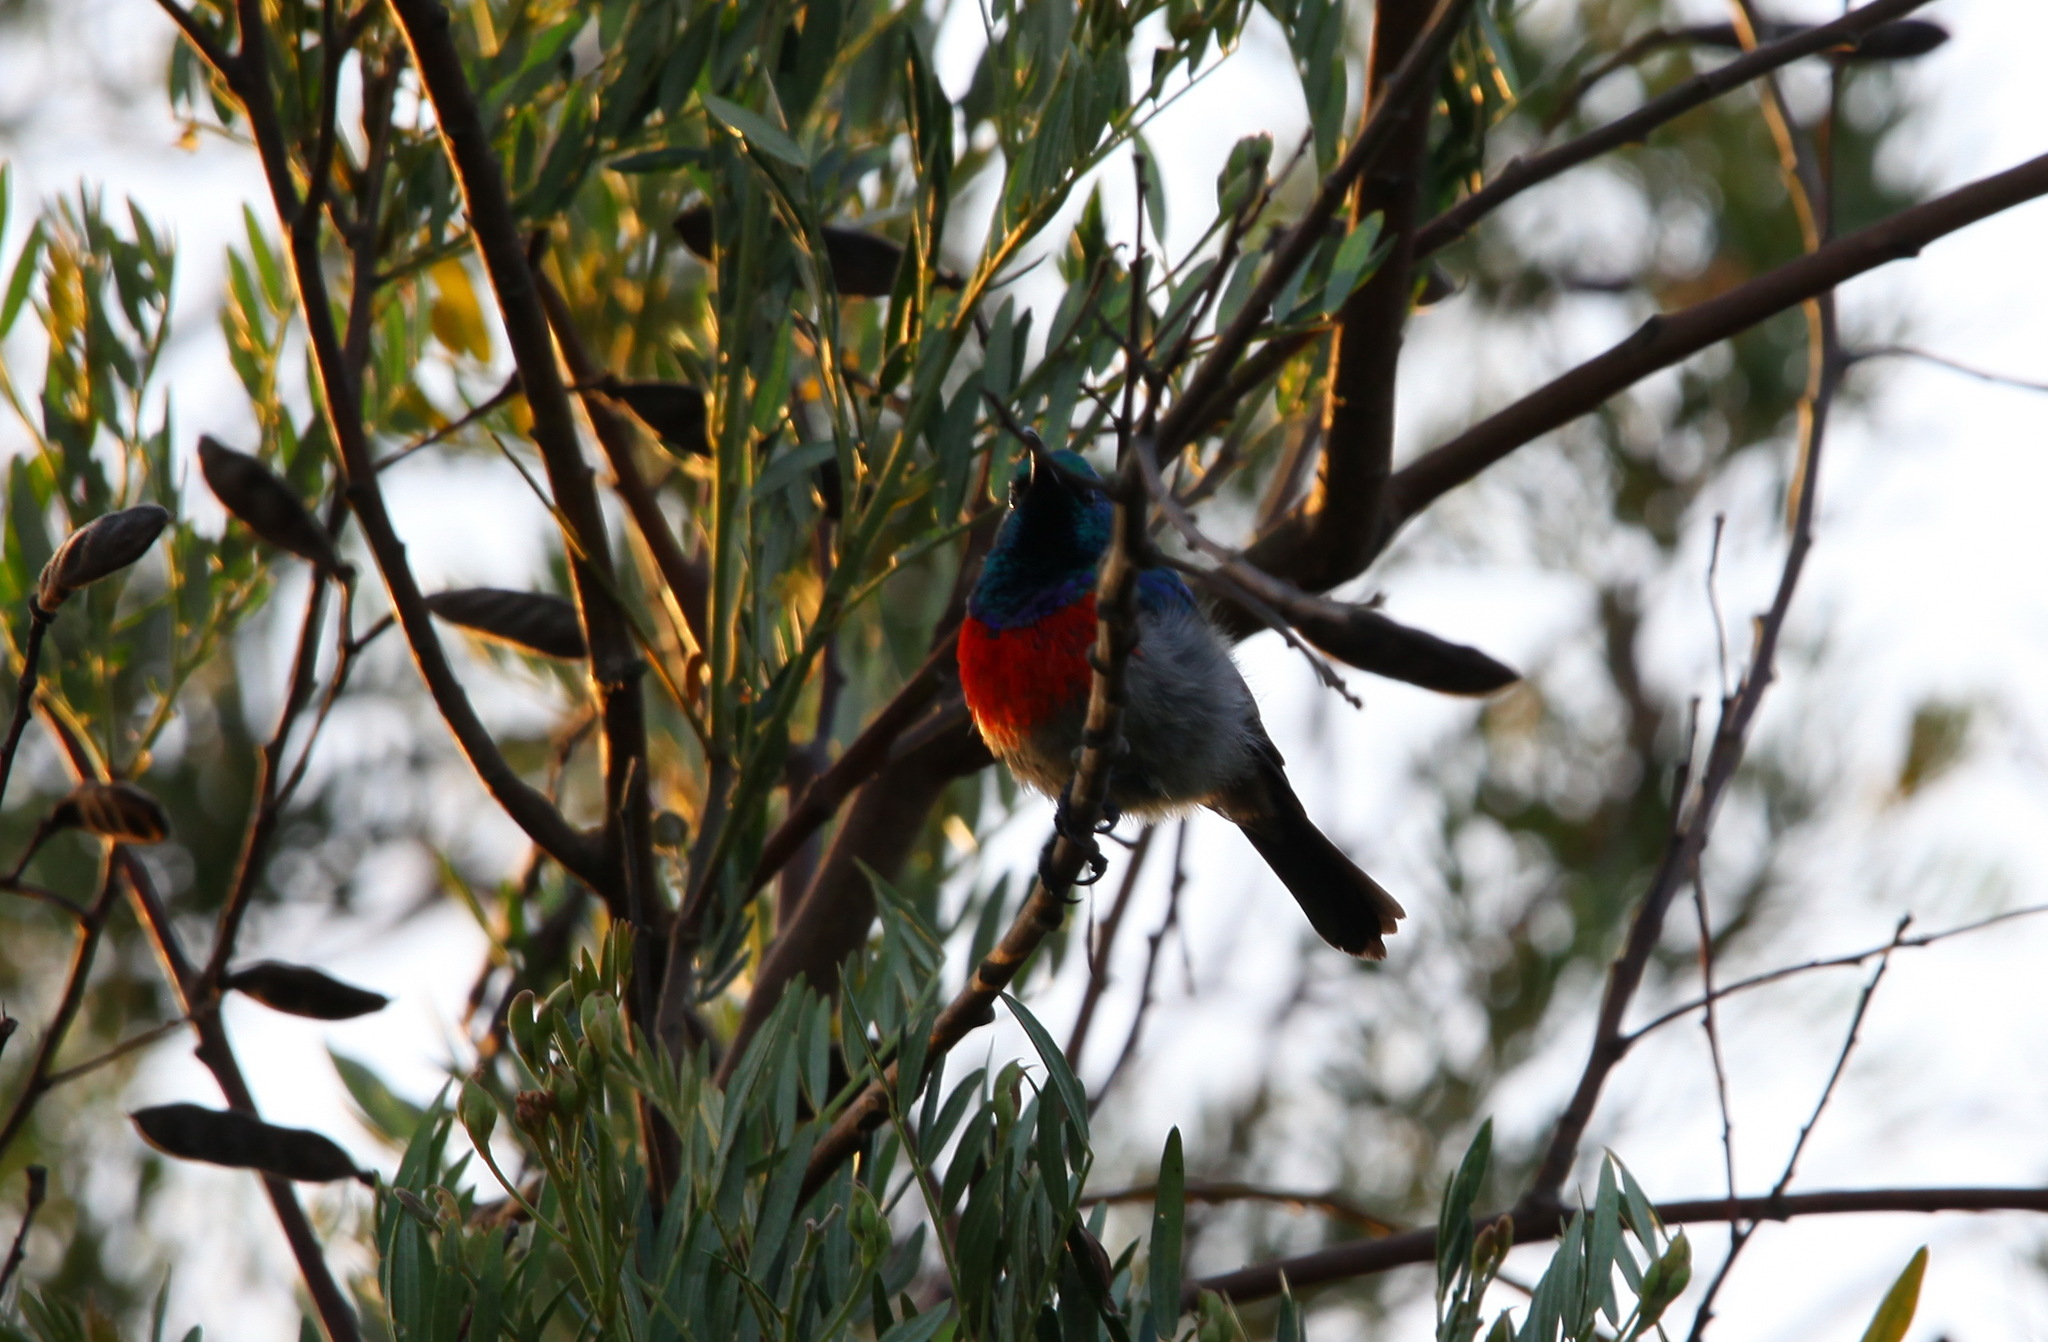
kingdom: Animalia
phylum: Chordata
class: Aves
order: Passeriformes
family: Nectariniidae
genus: Cinnyris
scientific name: Cinnyris afer
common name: Greater double-collared sunbird
